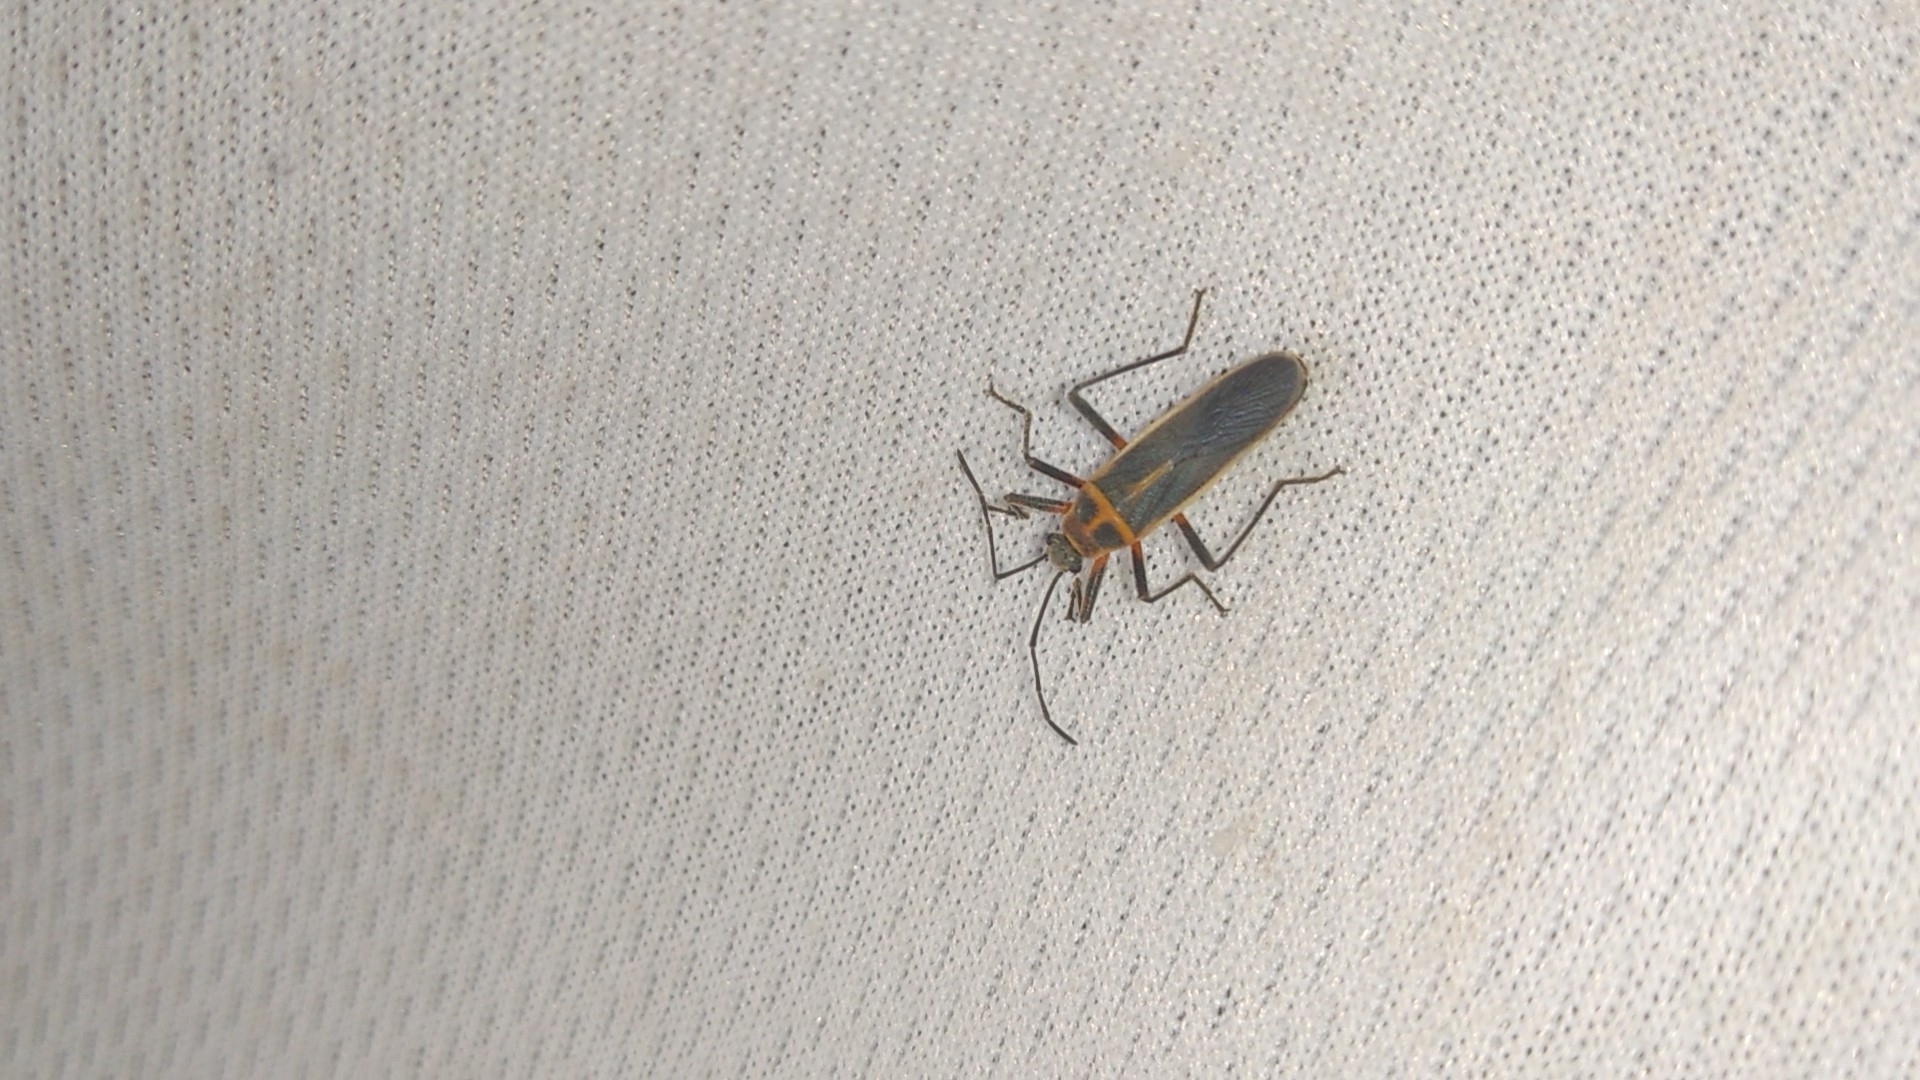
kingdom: Animalia
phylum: Arthropoda
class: Insecta
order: Hemiptera
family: Largidae
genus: Stenomacra
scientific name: Stenomacra marginella
